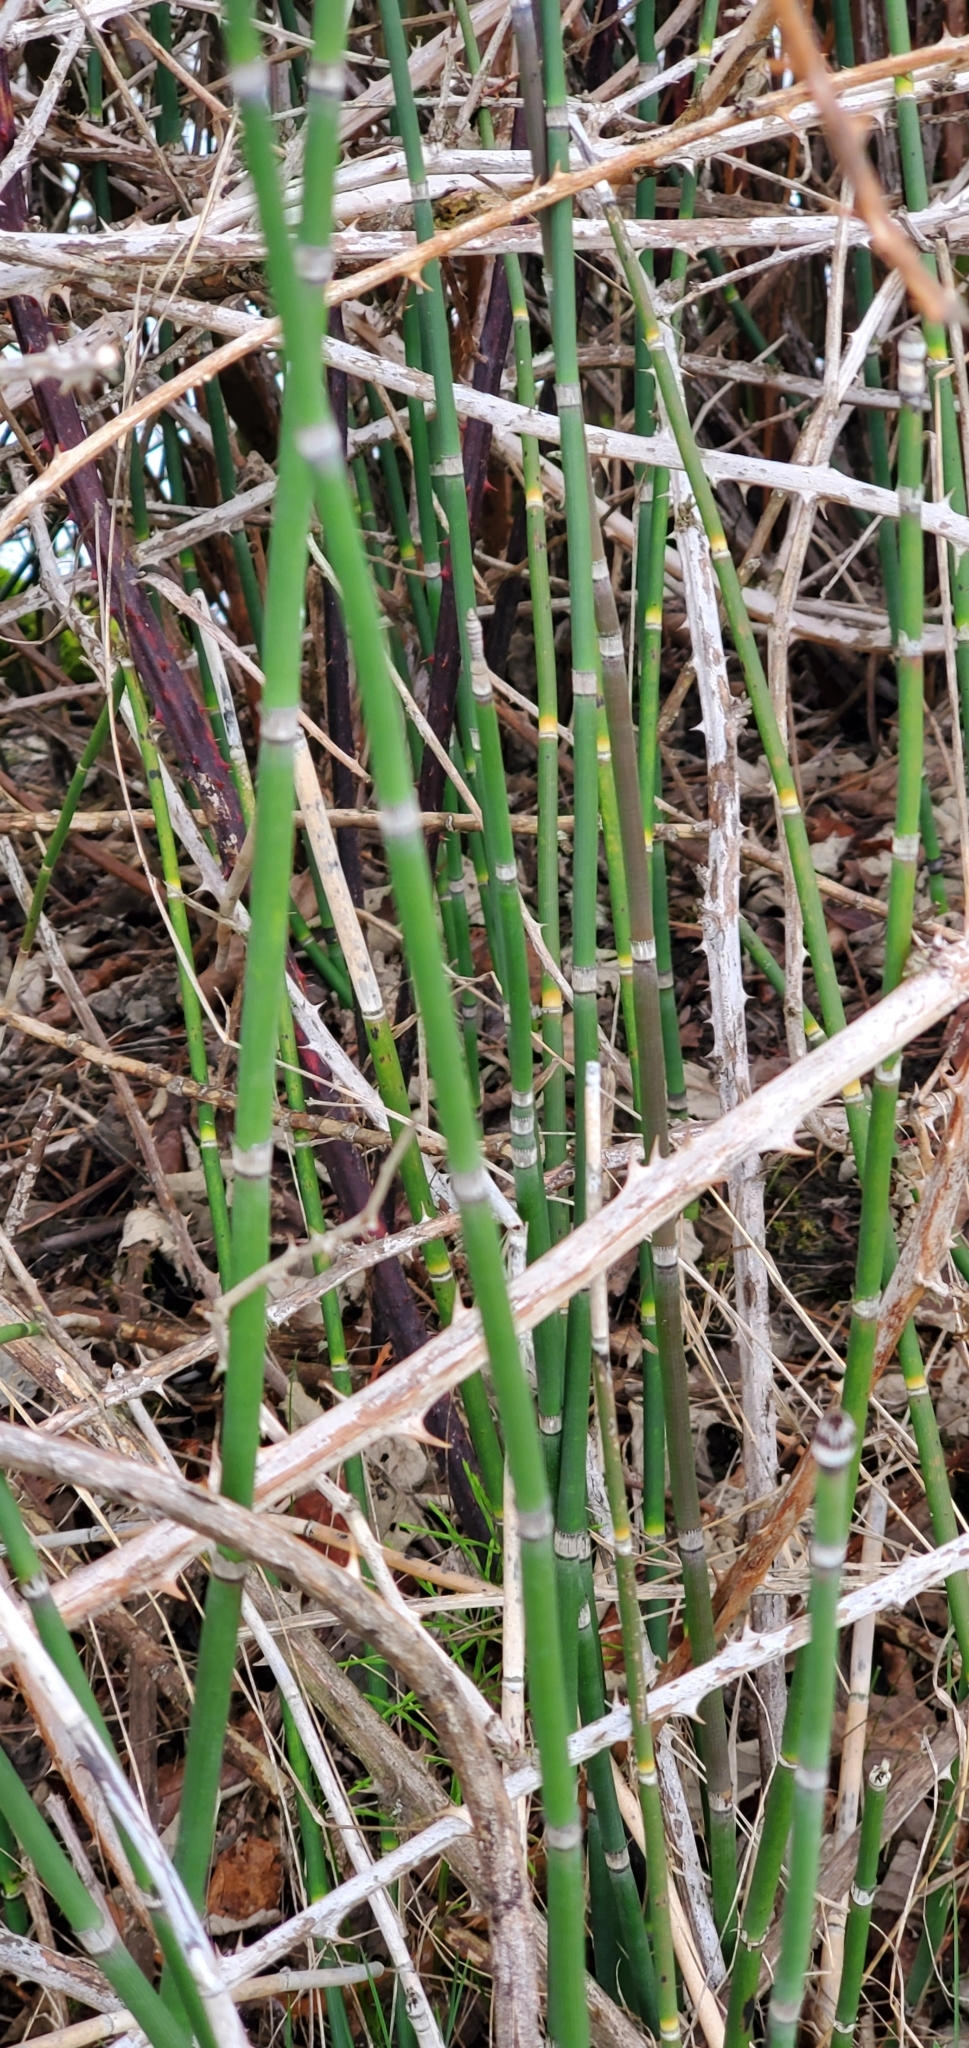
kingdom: Plantae
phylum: Tracheophyta
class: Polypodiopsida
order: Equisetales
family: Equisetaceae
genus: Equisetum
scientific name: Equisetum praealtum
